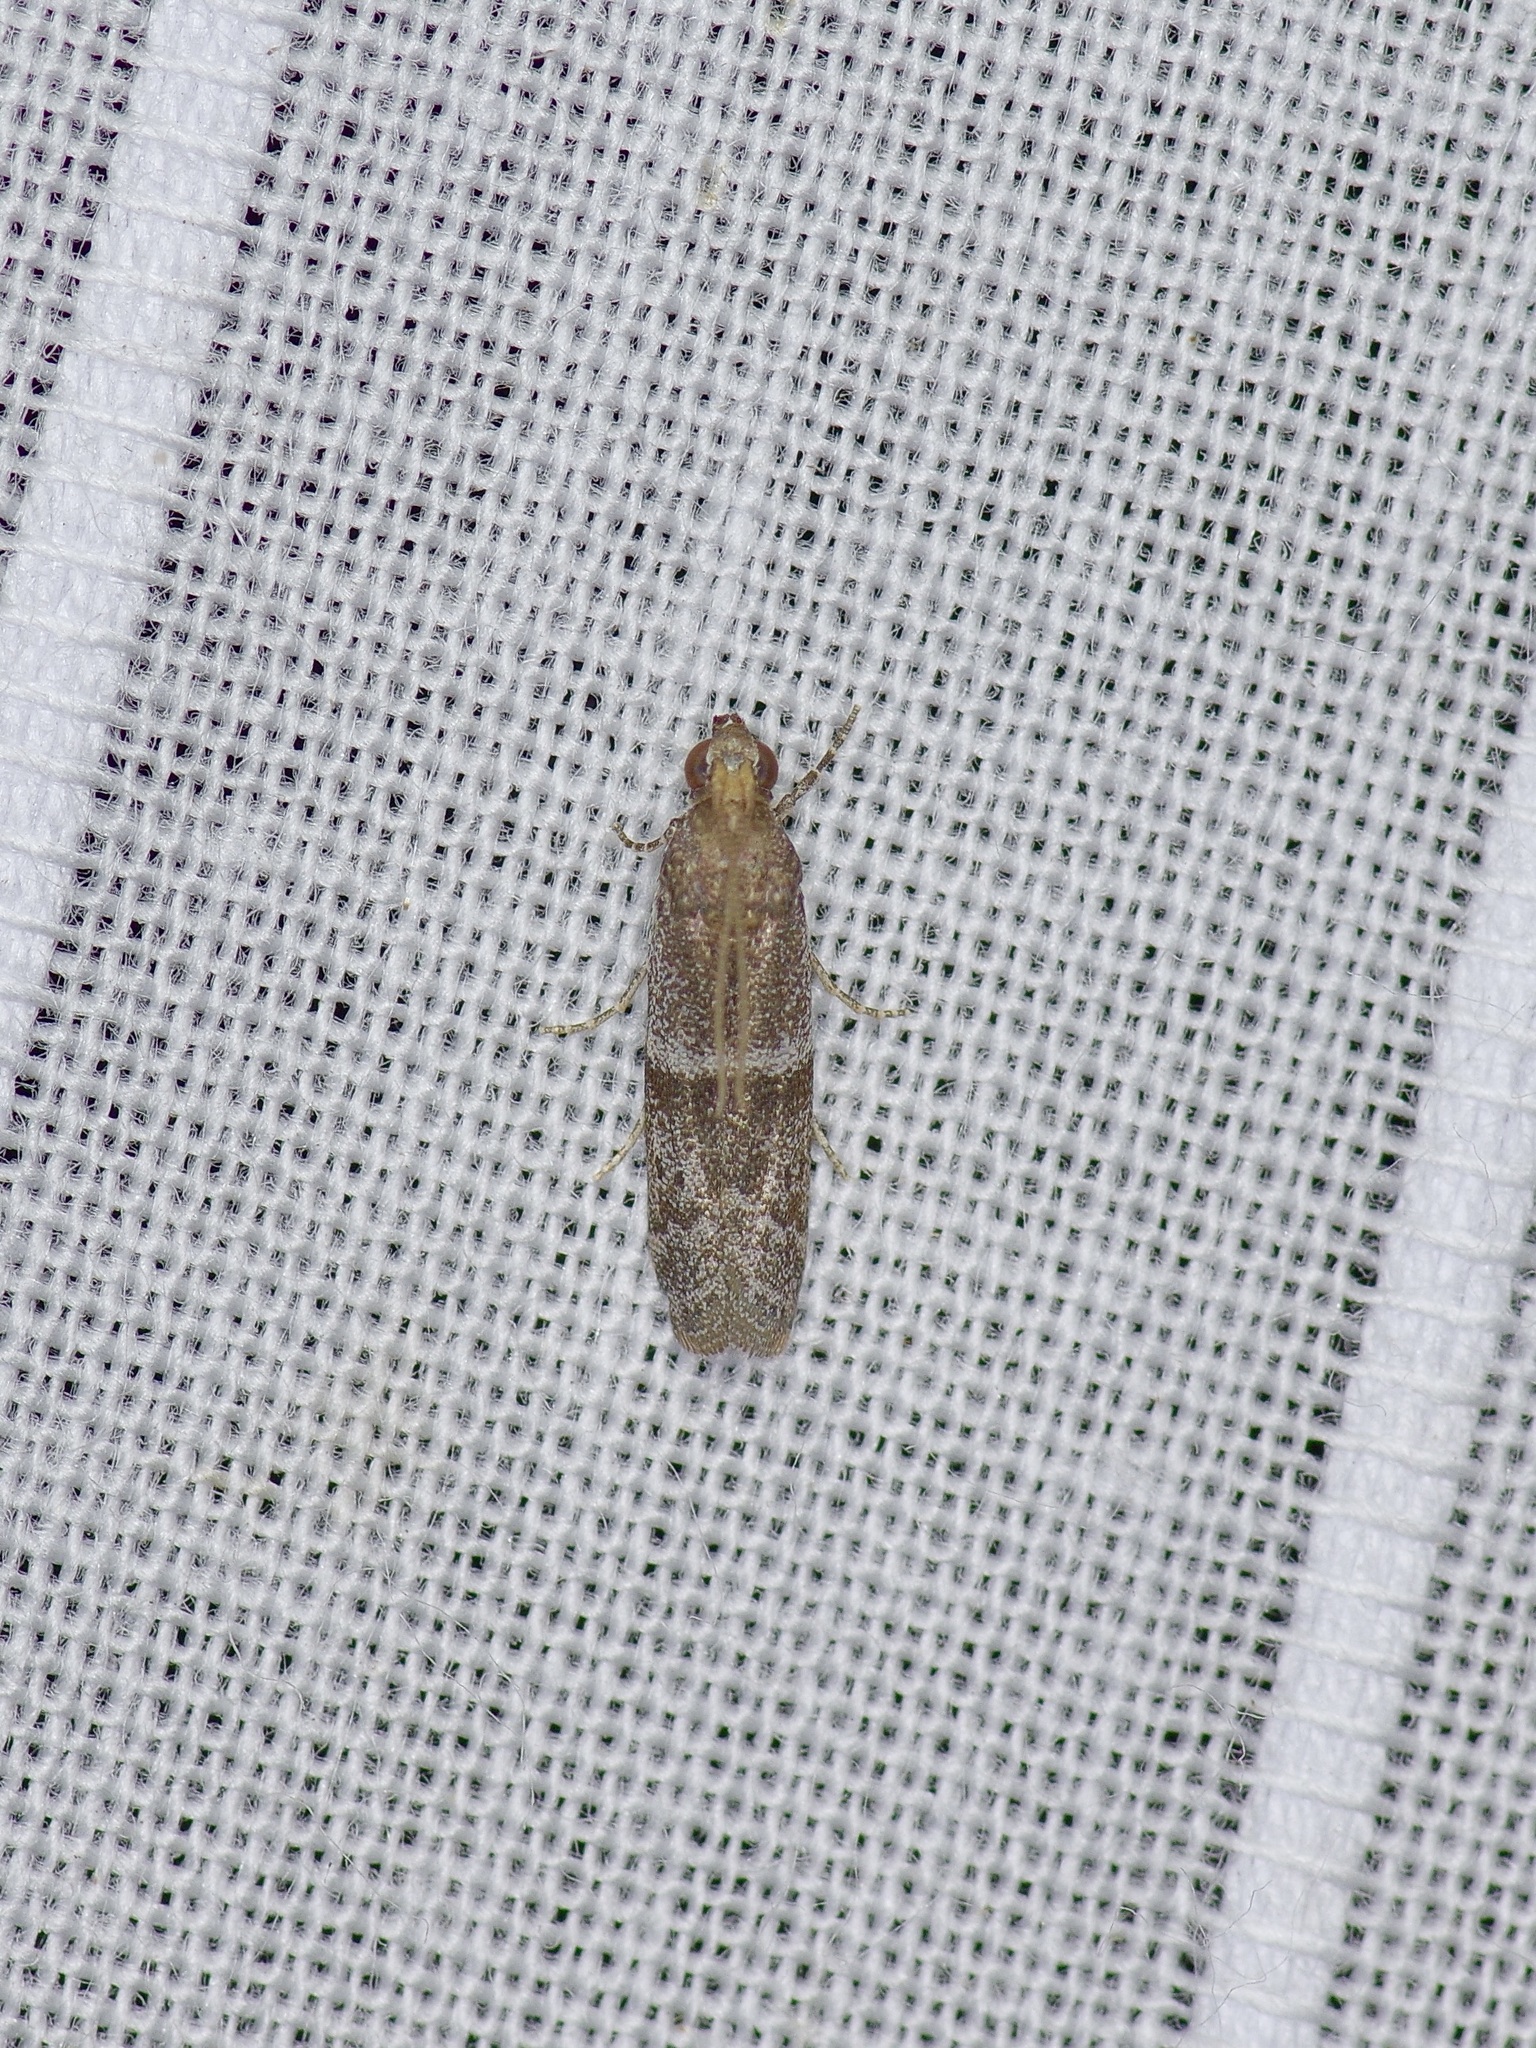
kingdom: Animalia
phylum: Arthropoda
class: Insecta
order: Lepidoptera
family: Pyralidae
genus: Ephestiodes
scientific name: Ephestiodes gilvescentella
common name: Moth
